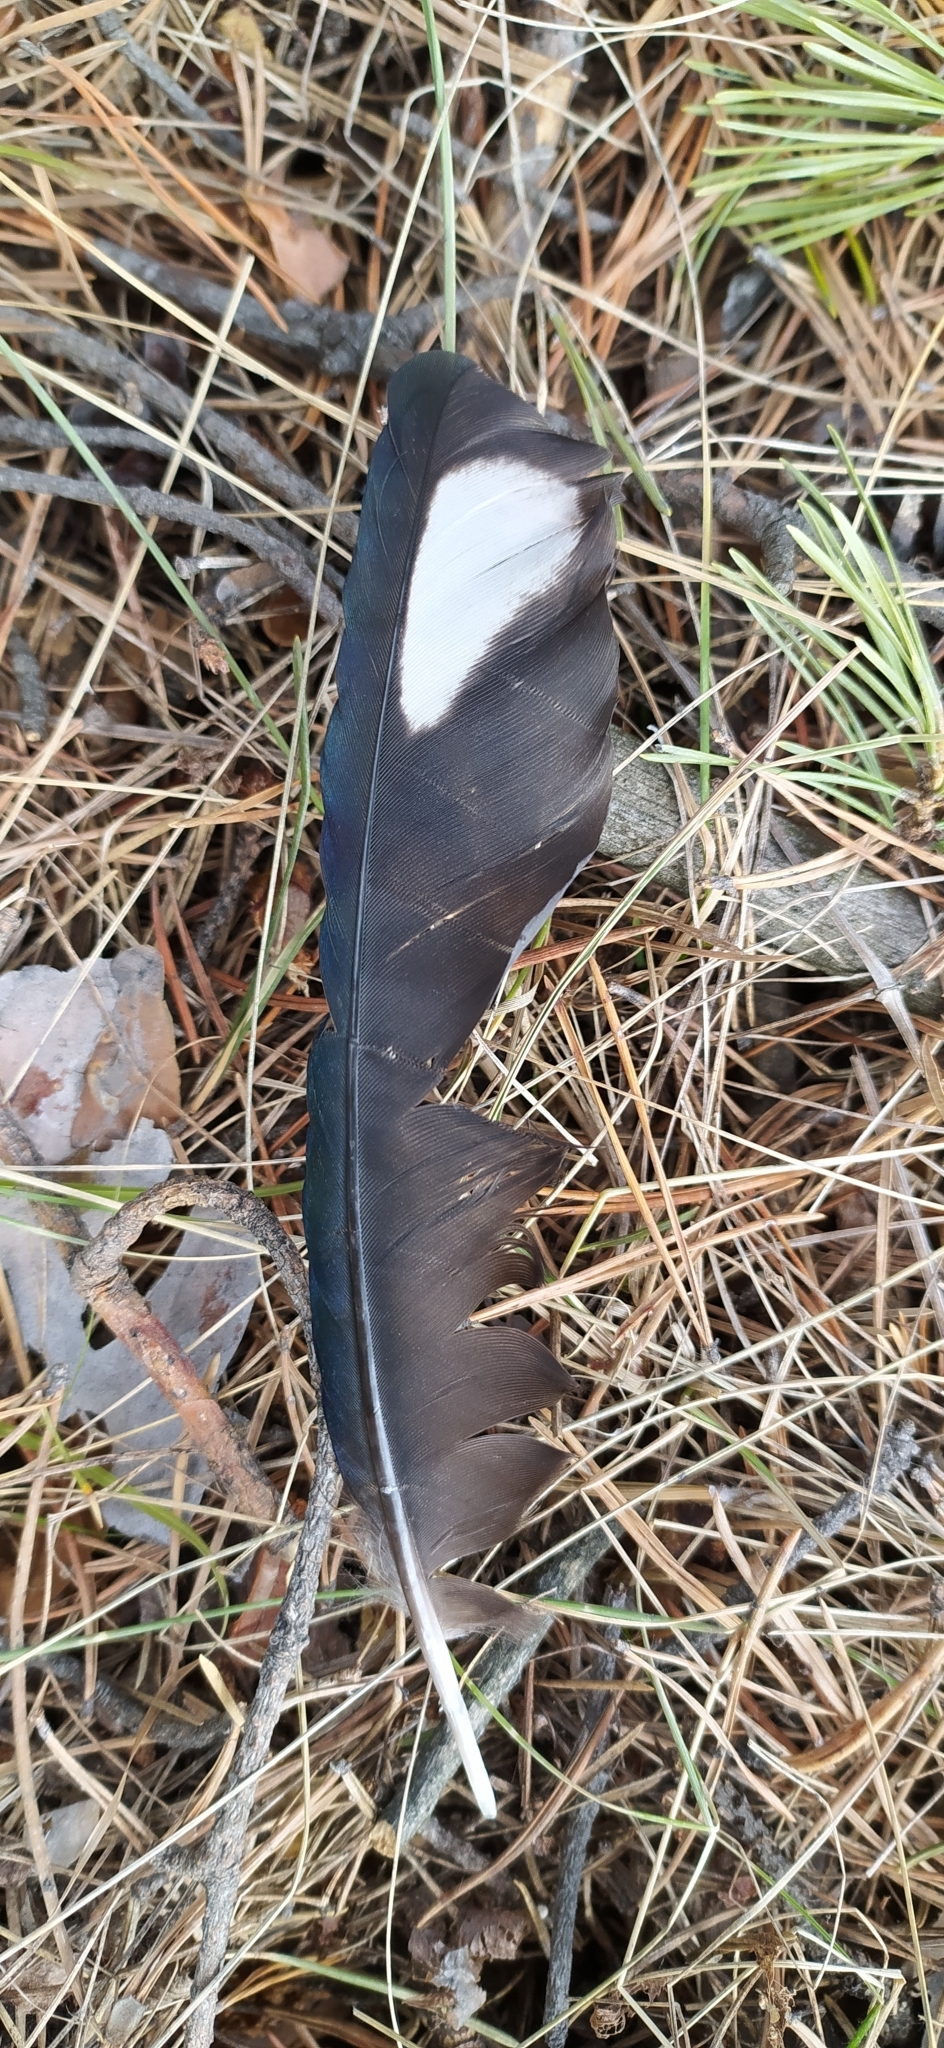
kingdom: Animalia
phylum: Chordata
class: Aves
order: Passeriformes
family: Corvidae
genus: Pica
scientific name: Pica pica
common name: Eurasian magpie
